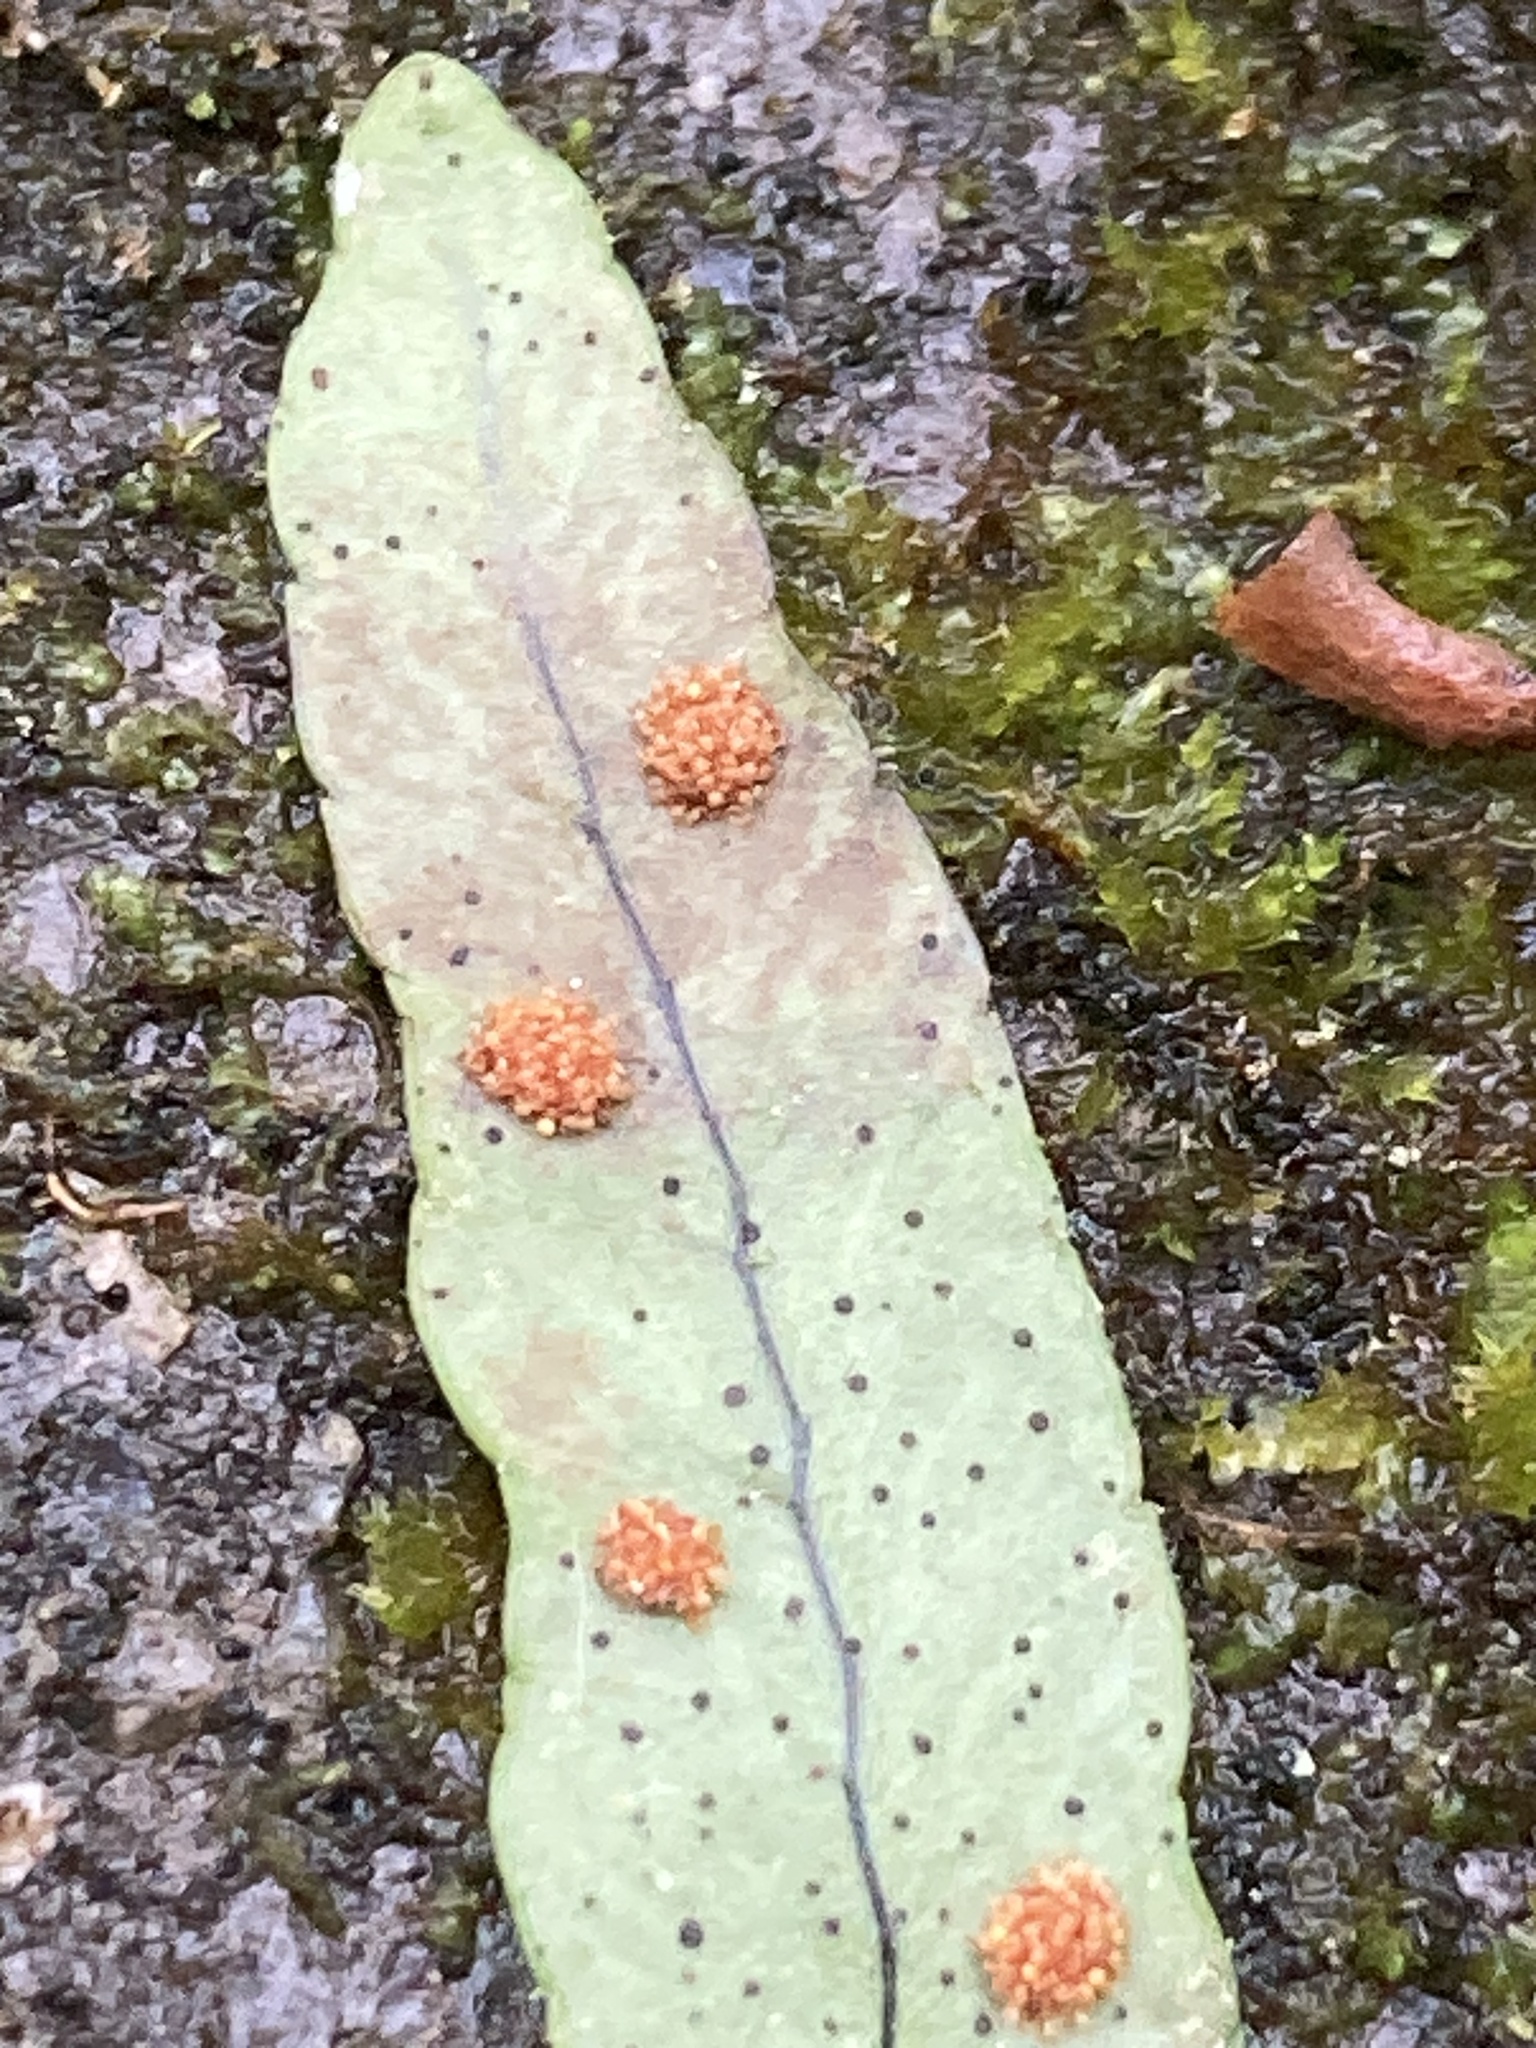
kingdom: Plantae
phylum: Tracheophyta
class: Polypodiopsida
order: Polypodiales
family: Polypodiaceae
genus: Polypodium
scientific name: Polypodium appalachianum
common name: Appalachian polypody
